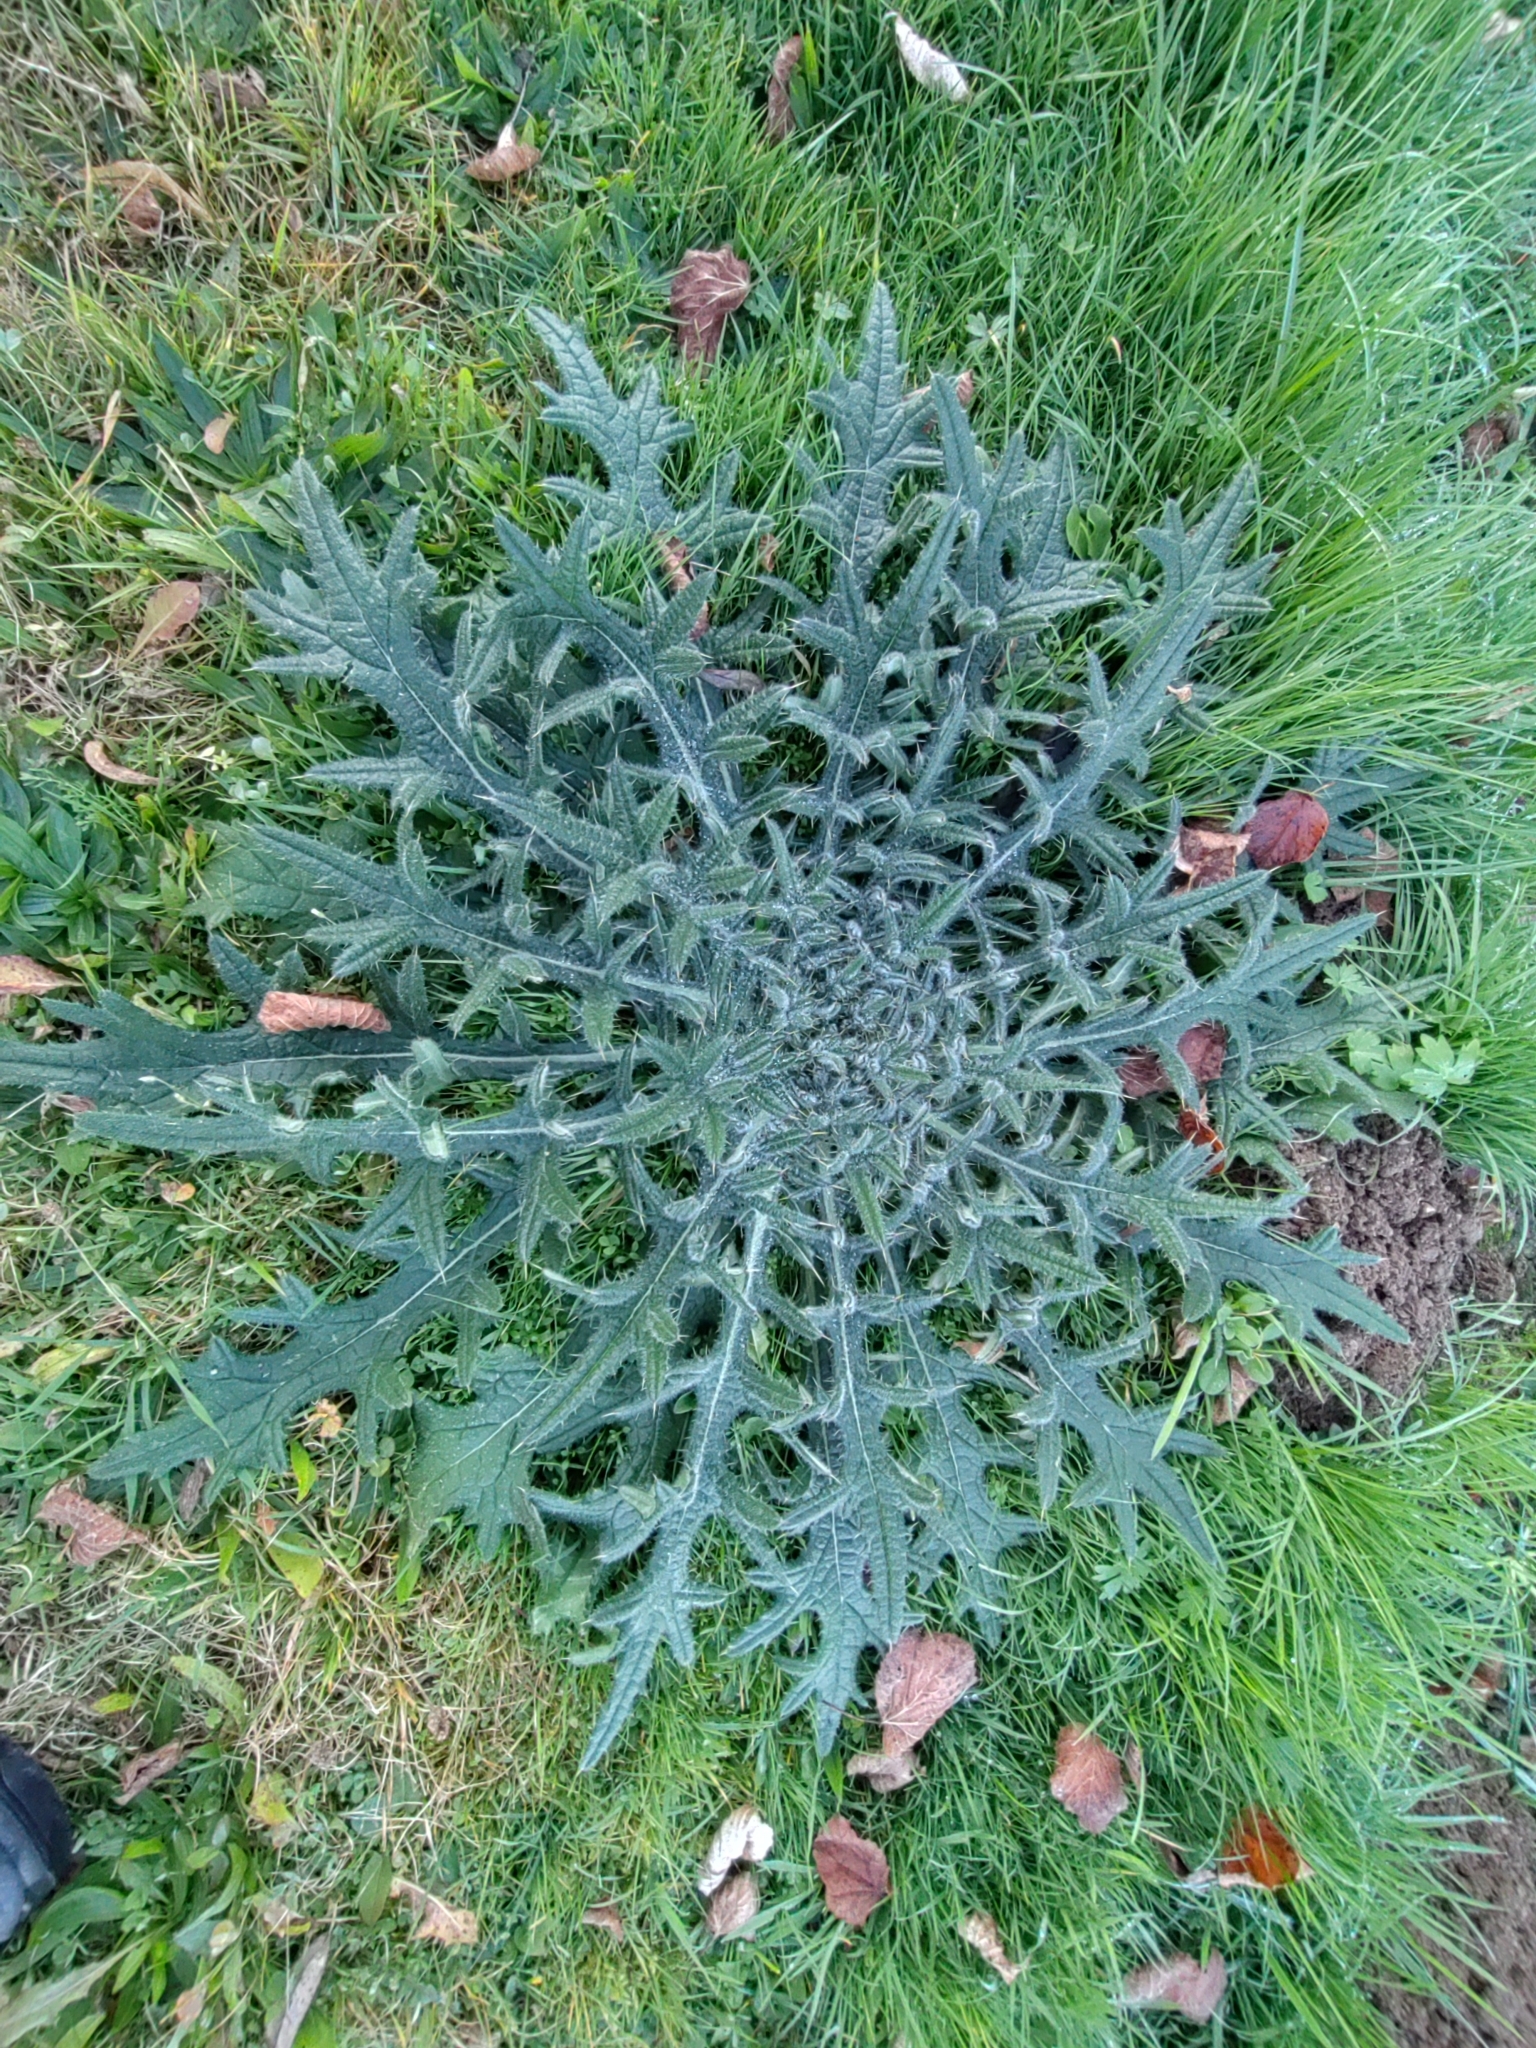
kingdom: Plantae
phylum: Tracheophyta
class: Magnoliopsida
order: Asterales
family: Asteraceae
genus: Cirsium
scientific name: Cirsium vulgare
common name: Bull thistle
